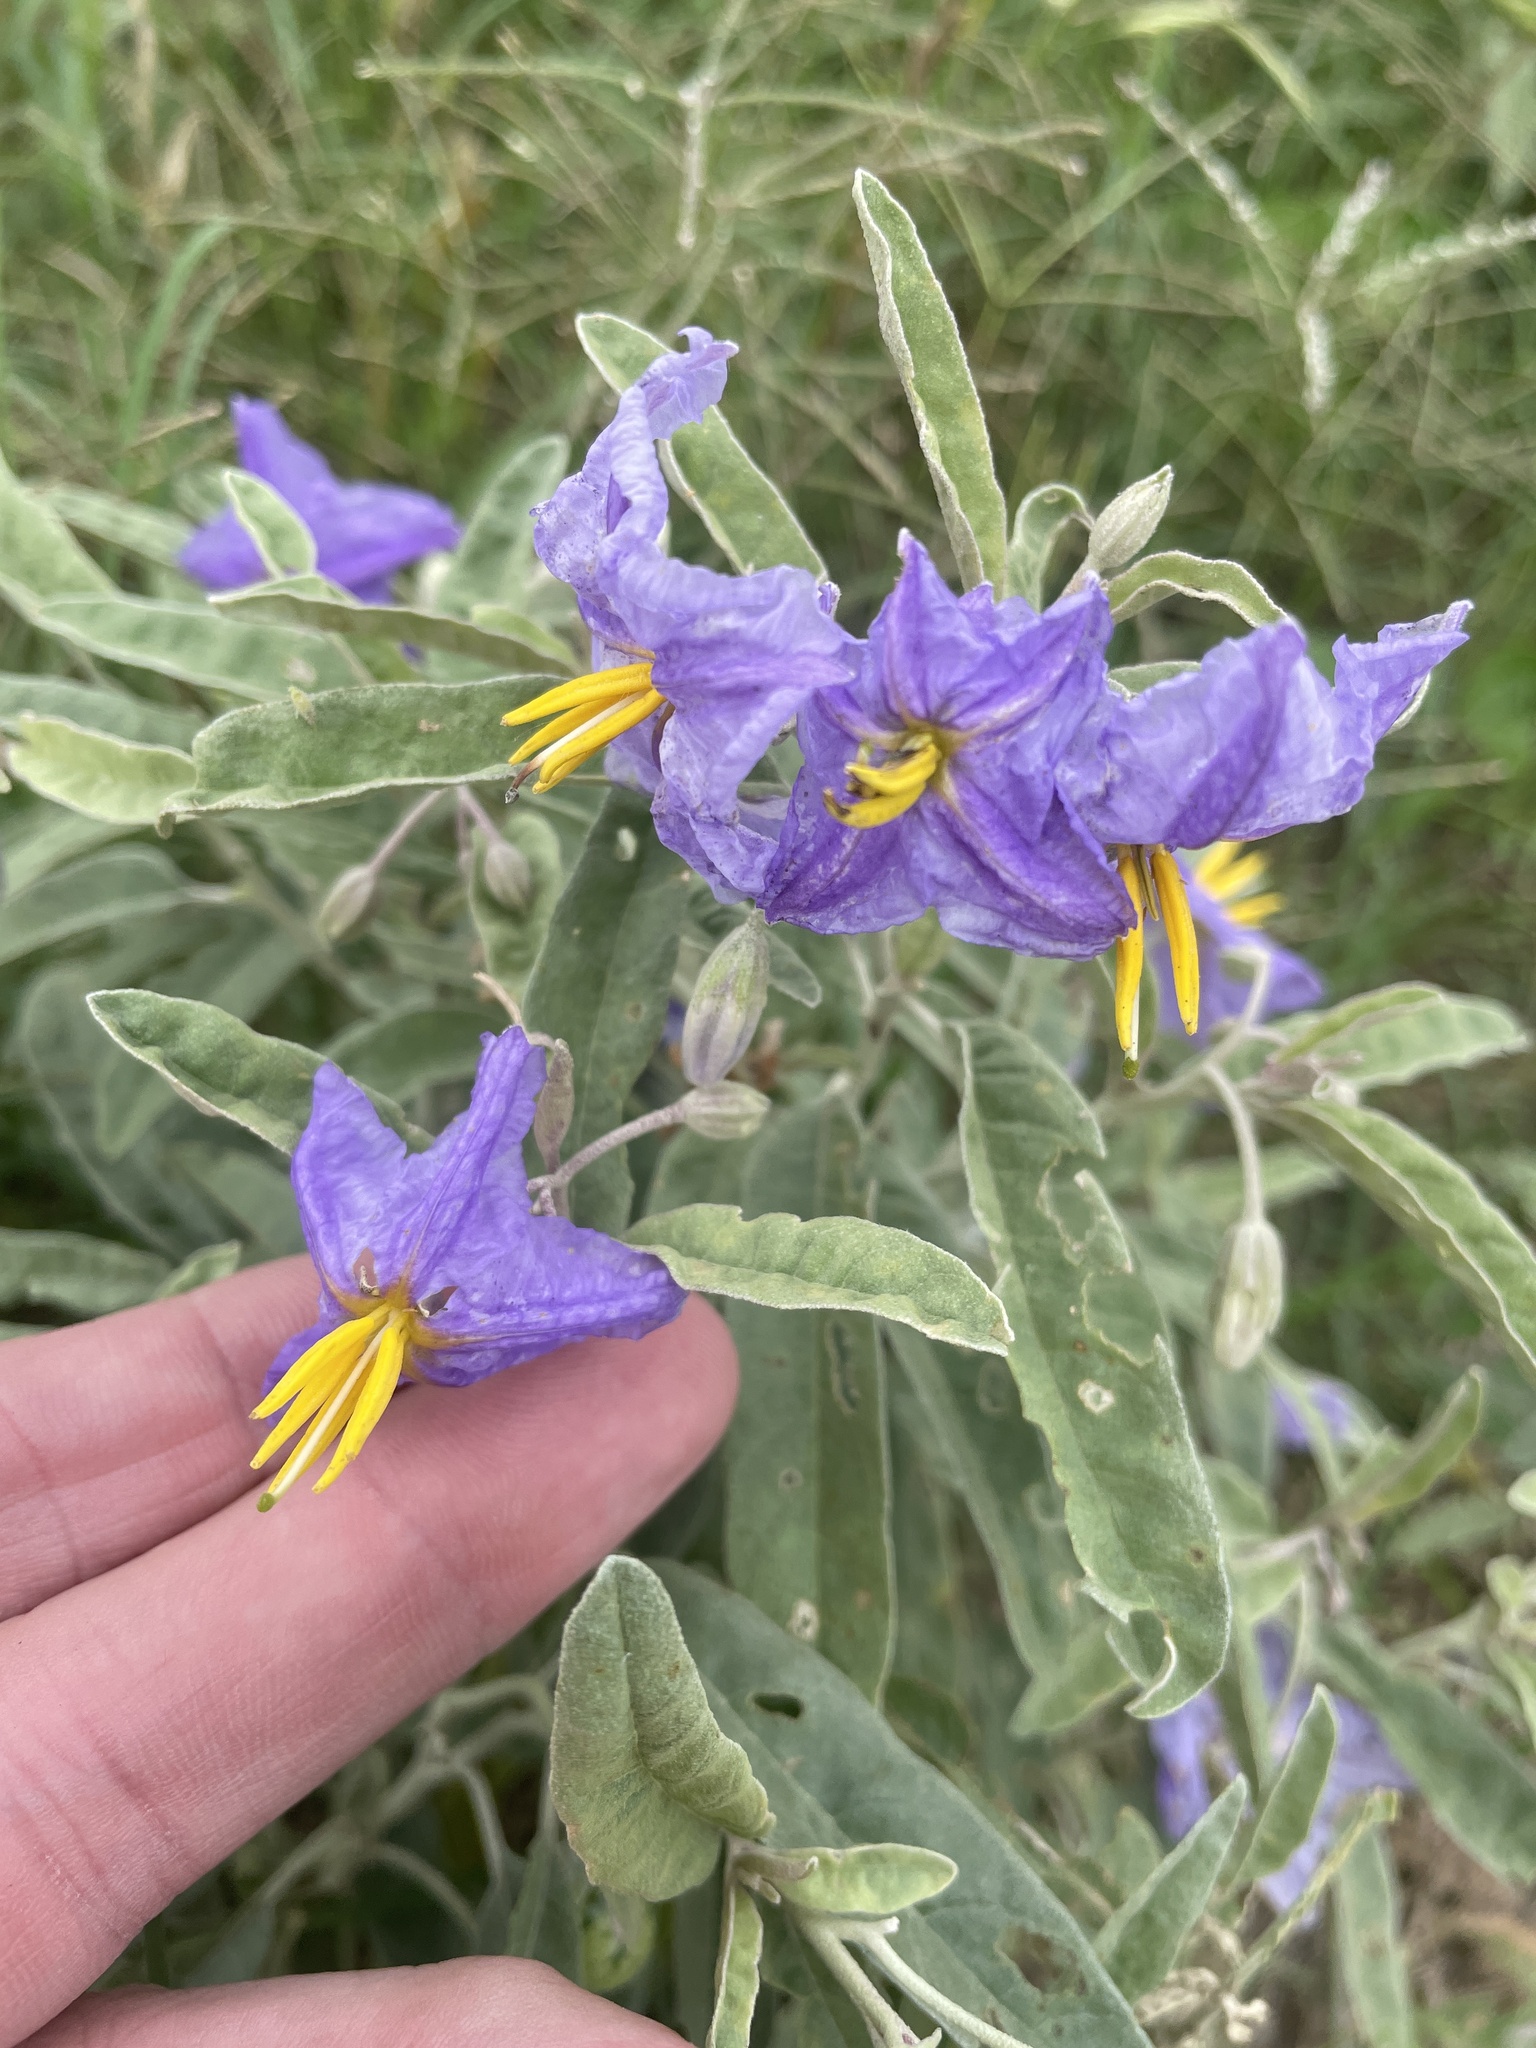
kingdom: Plantae
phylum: Tracheophyta
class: Magnoliopsida
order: Solanales
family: Solanaceae
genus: Solanum
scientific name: Solanum elaeagnifolium
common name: Silverleaf nightshade
